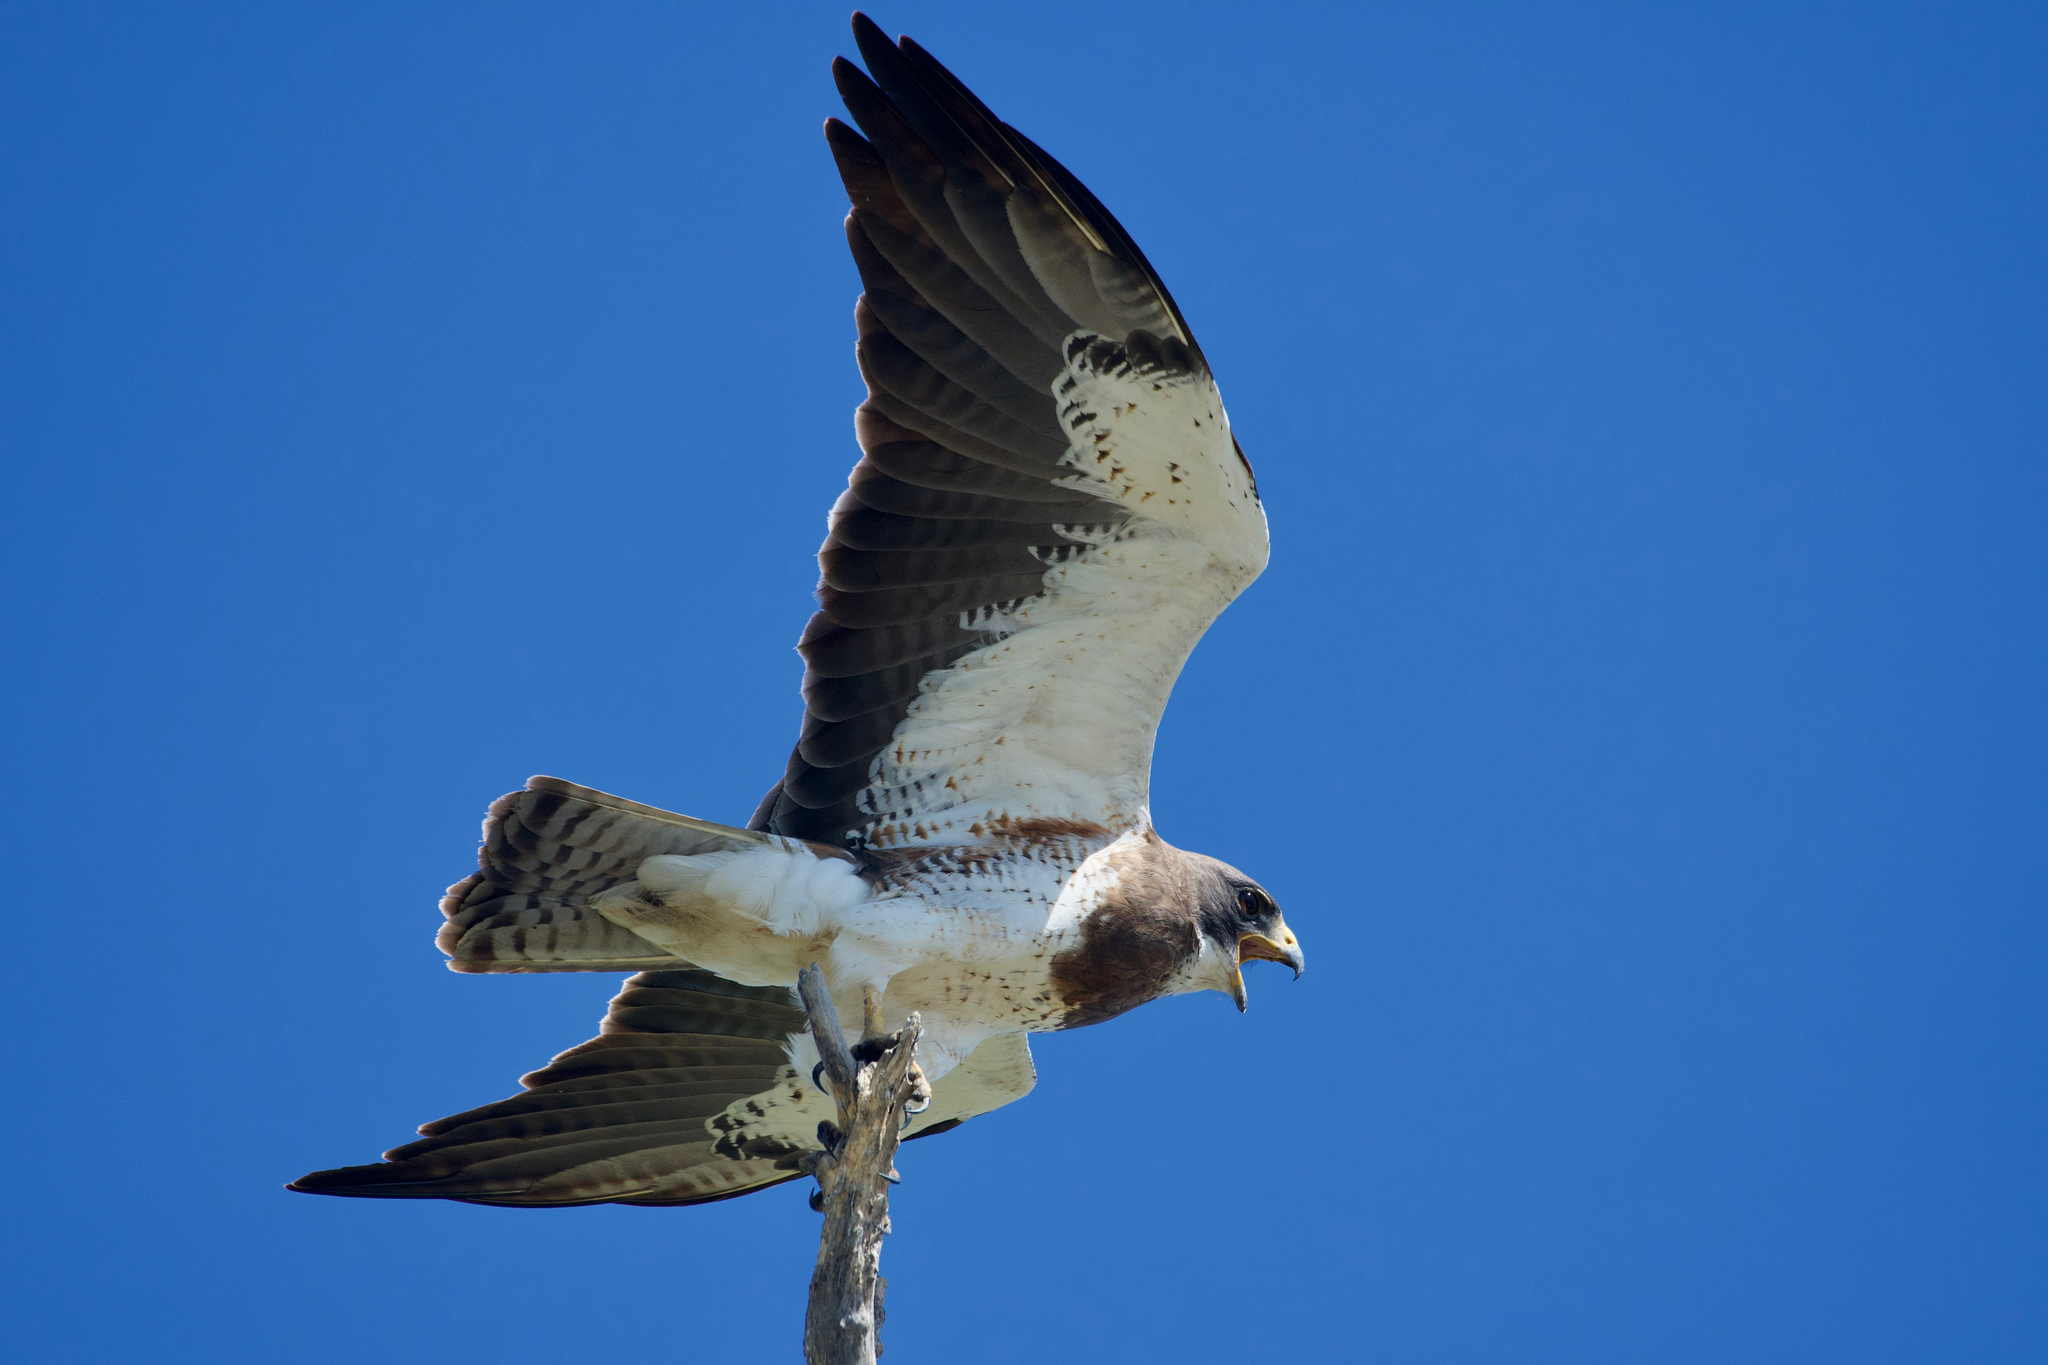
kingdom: Animalia
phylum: Chordata
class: Aves
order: Accipitriformes
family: Accipitridae
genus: Buteo
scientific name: Buteo swainsoni
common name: Swainson's hawk
